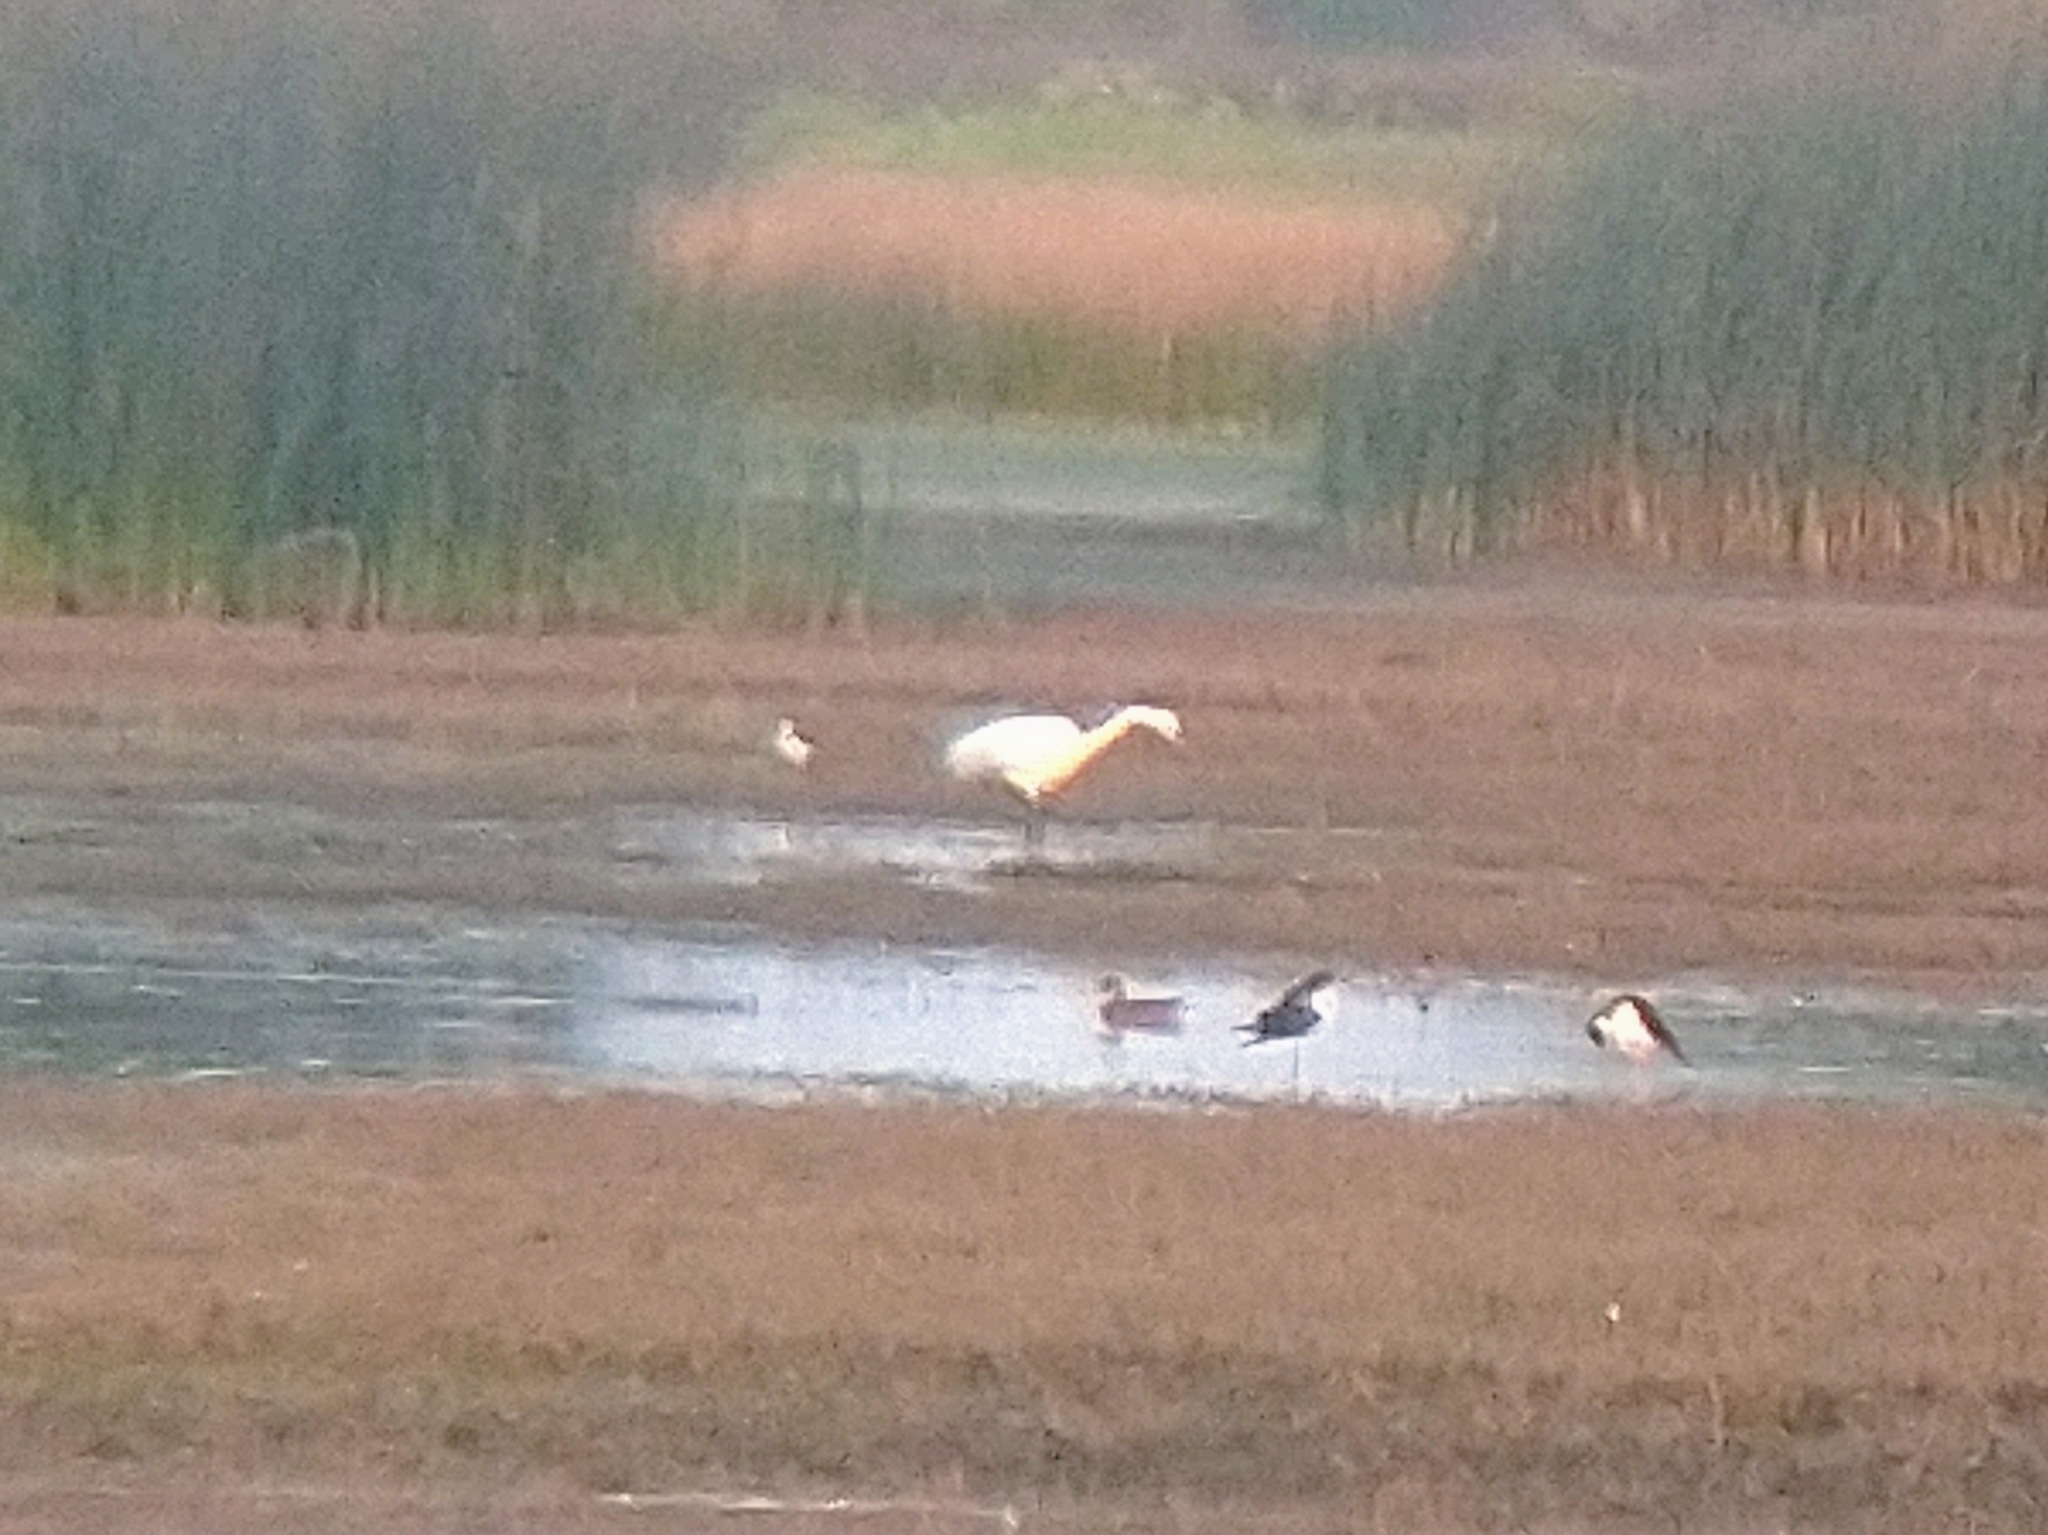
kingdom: Animalia
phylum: Chordata
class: Aves
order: Pelecaniformes
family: Ardeidae
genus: Ardea
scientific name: Ardea alba
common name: Great egret
